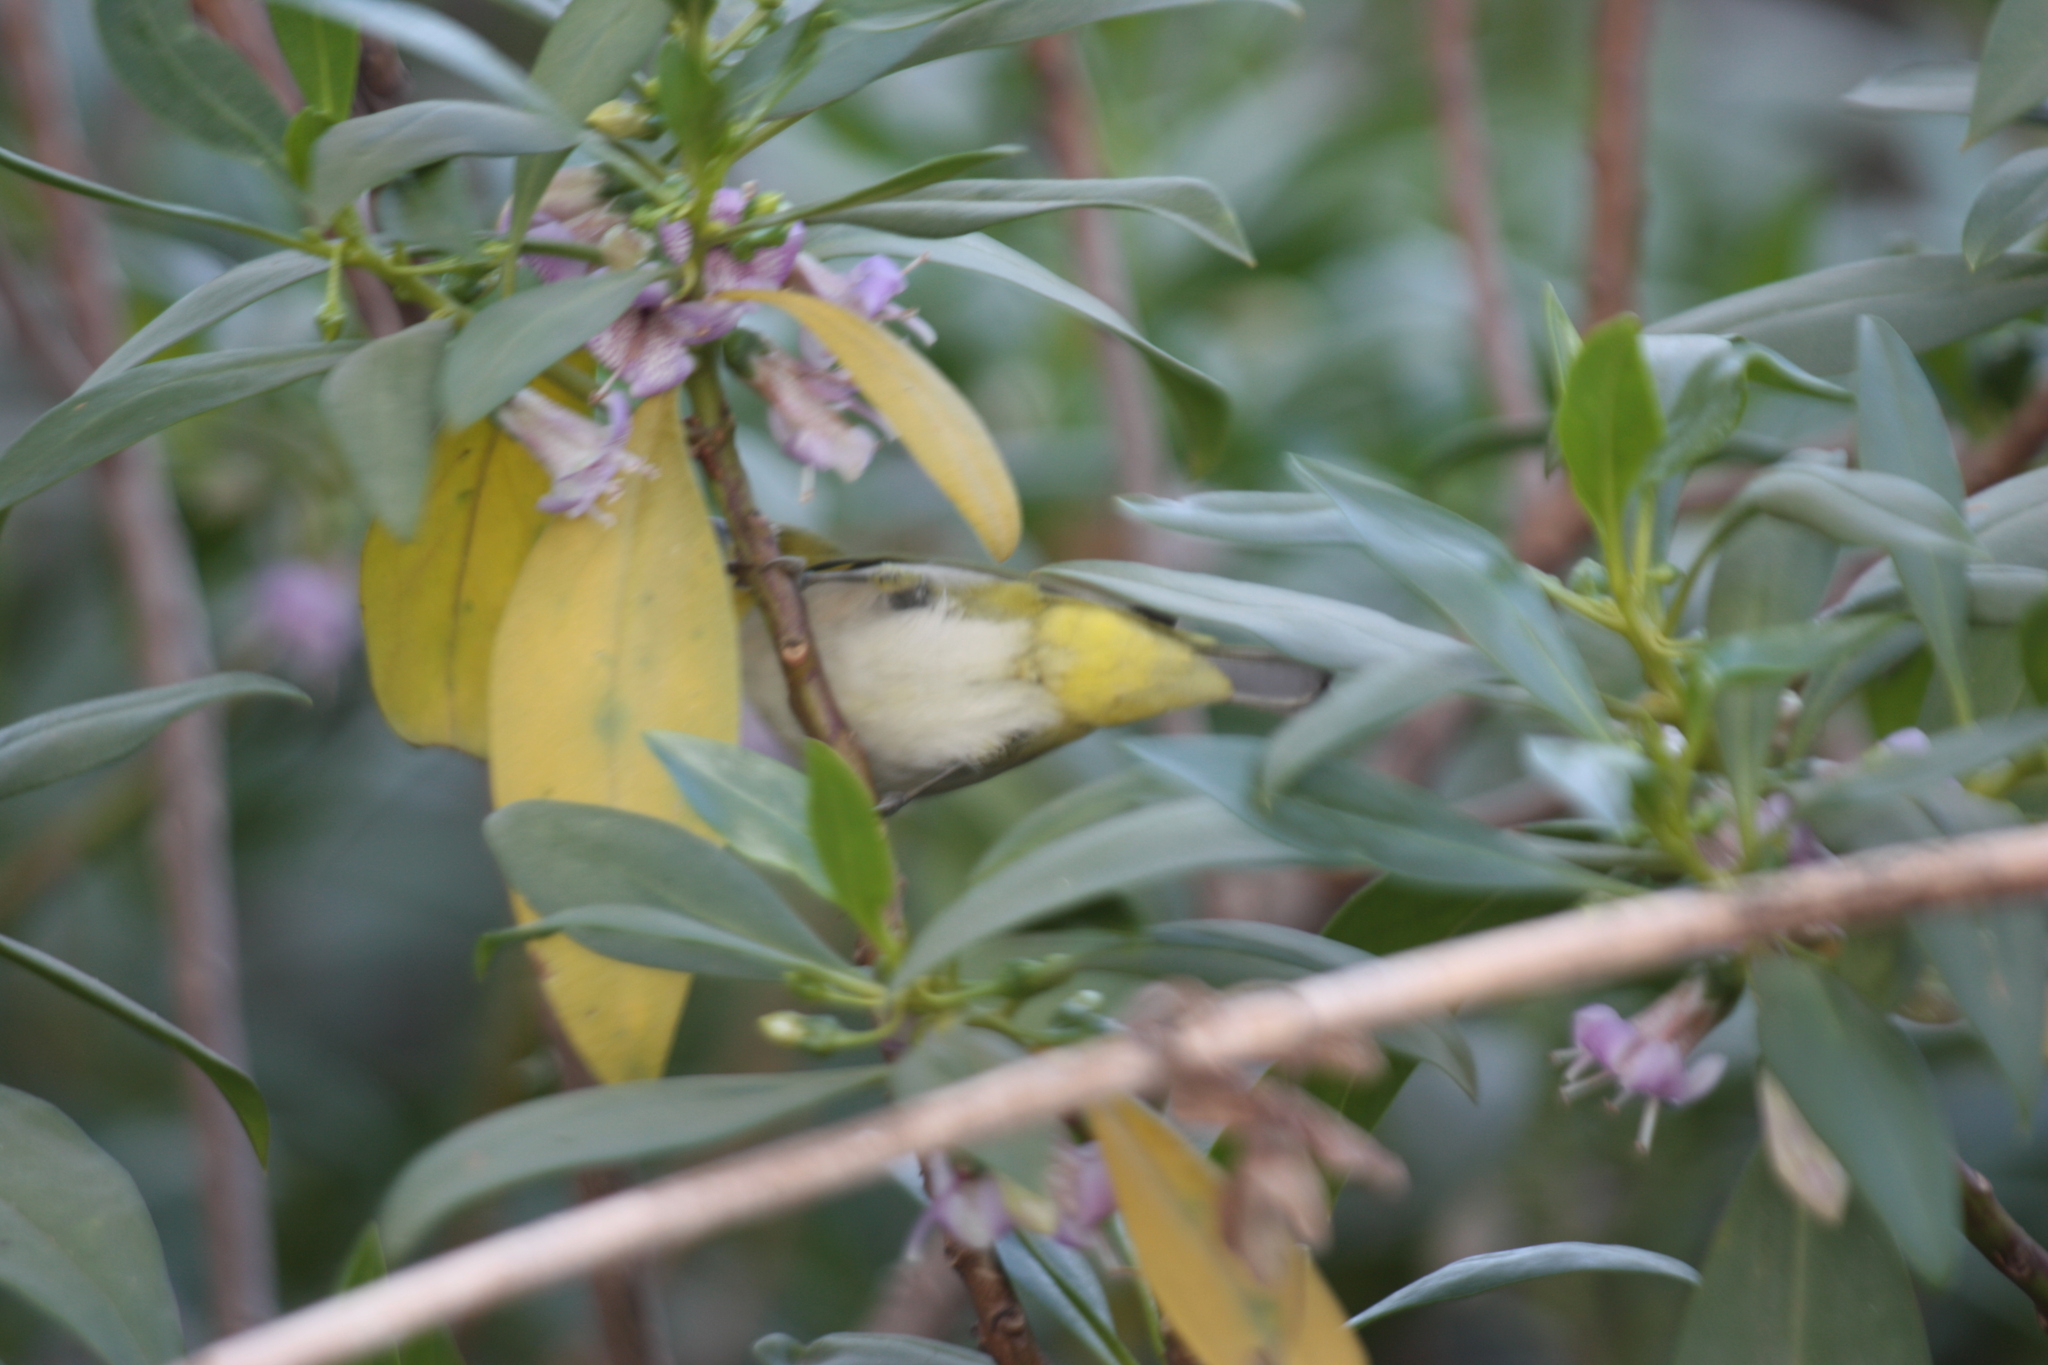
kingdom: Animalia
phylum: Chordata
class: Aves
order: Passeriformes
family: Zosteropidae
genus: Zosterops
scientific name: Zosterops simplex
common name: Swinhoe's white-eye
